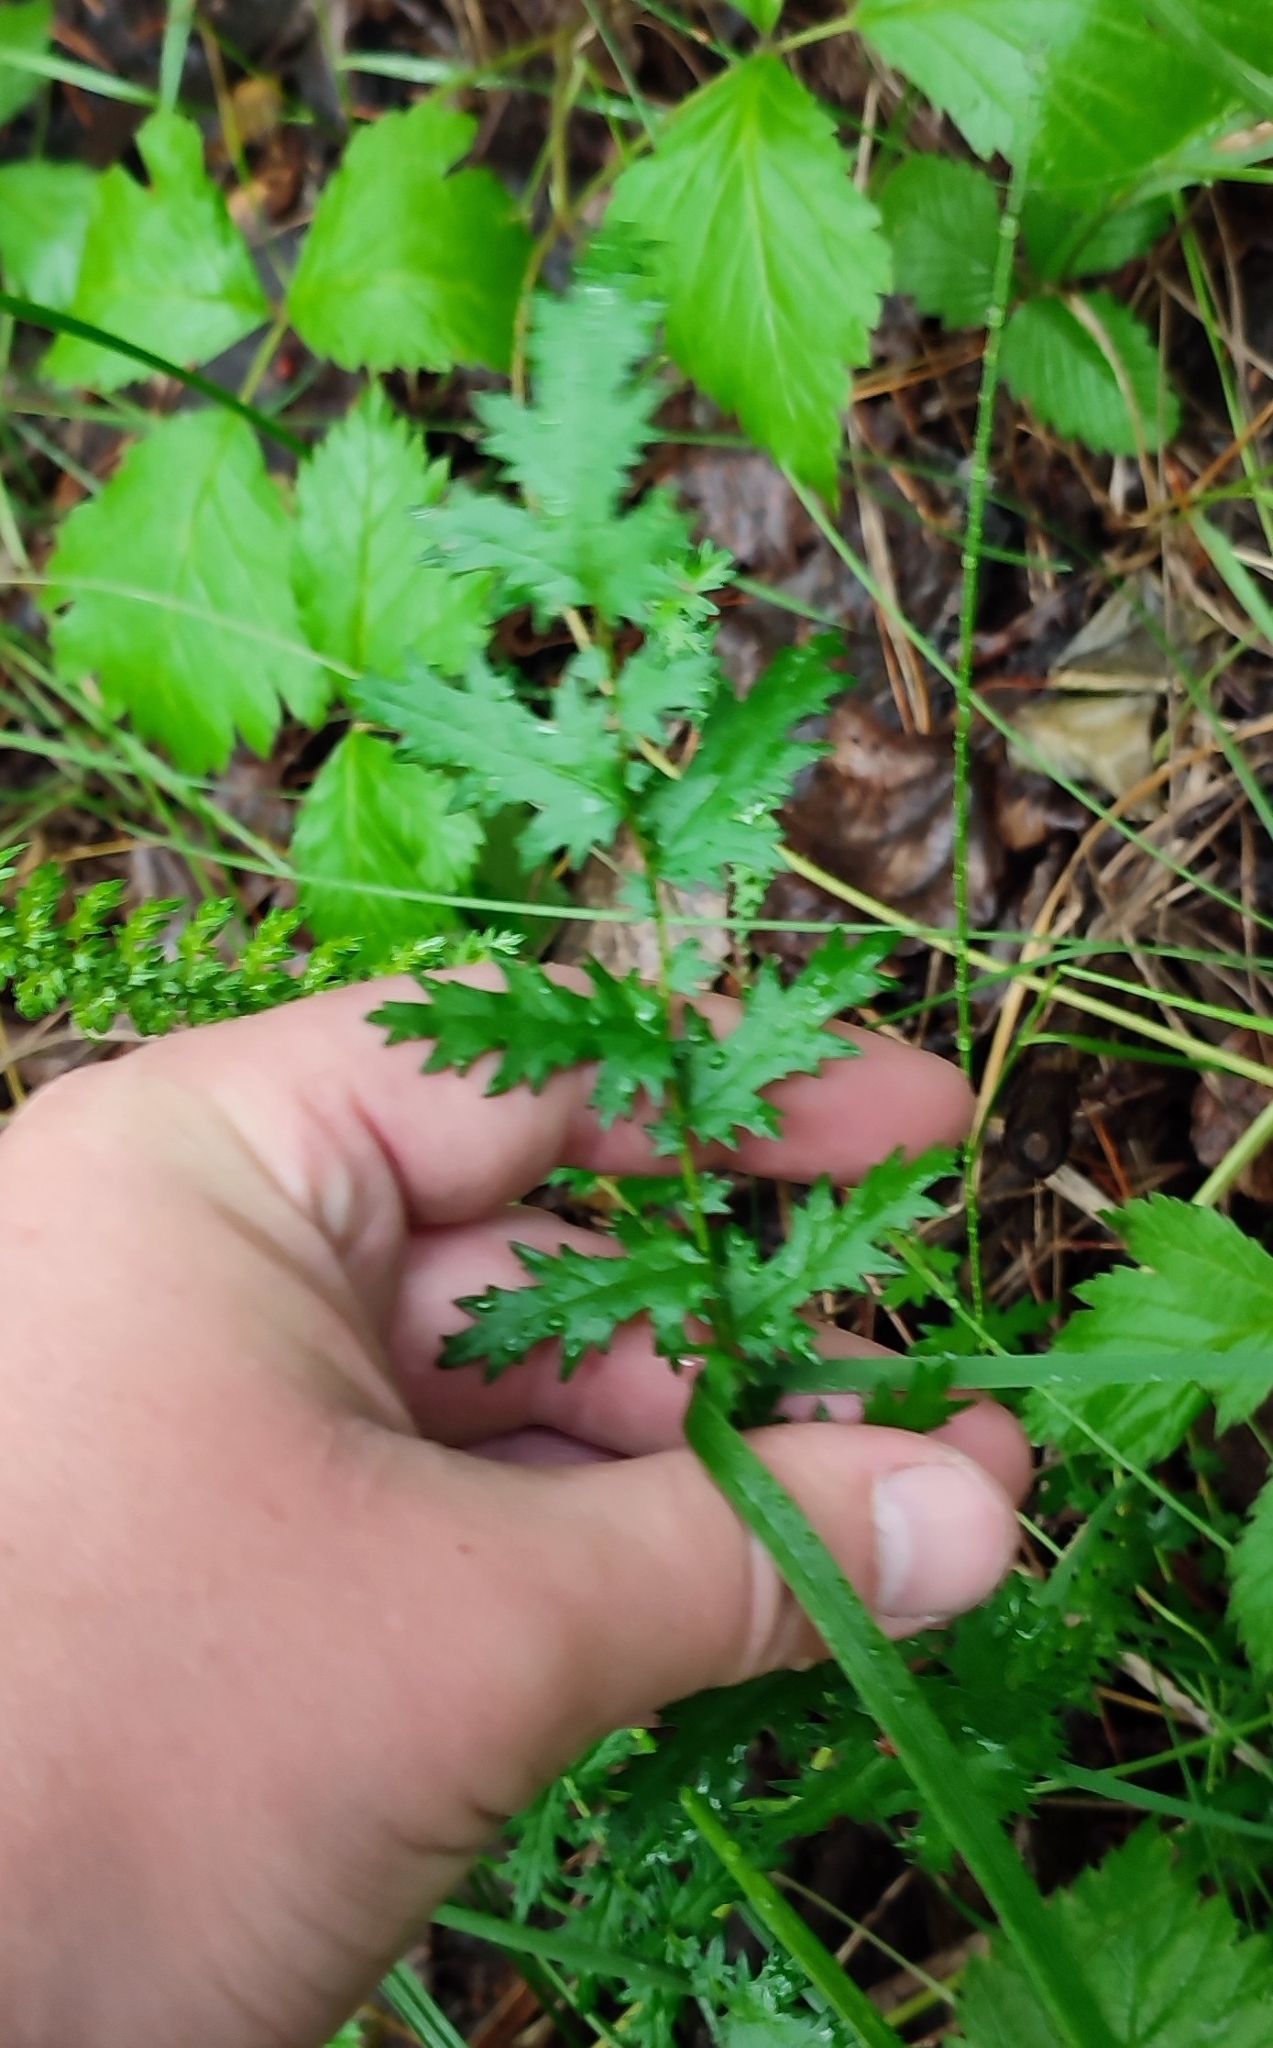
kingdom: Plantae
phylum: Tracheophyta
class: Magnoliopsida
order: Rosales
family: Rosaceae
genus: Filipendula
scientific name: Filipendula vulgaris
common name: Dropwort
